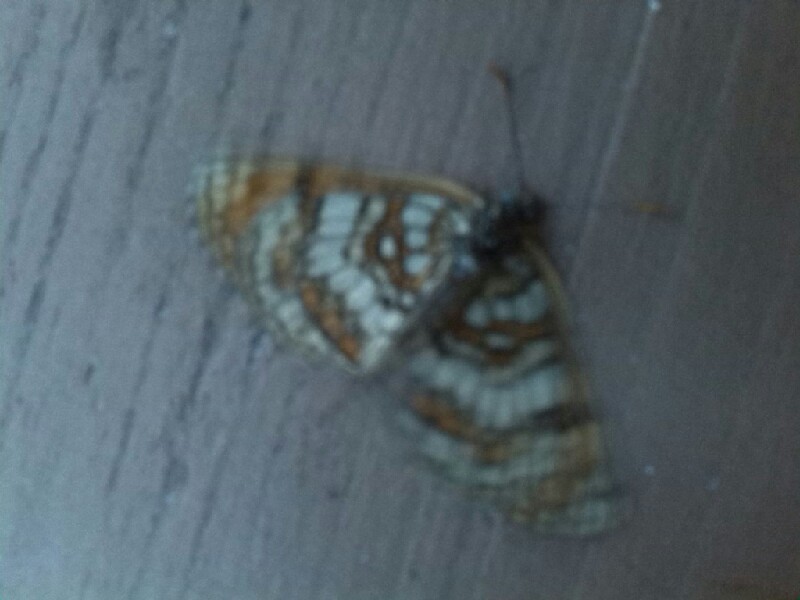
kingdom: Animalia
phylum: Arthropoda
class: Insecta
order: Lepidoptera
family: Nymphalidae
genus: Melitaea
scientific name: Melitaea athalia
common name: Heath fritillary
